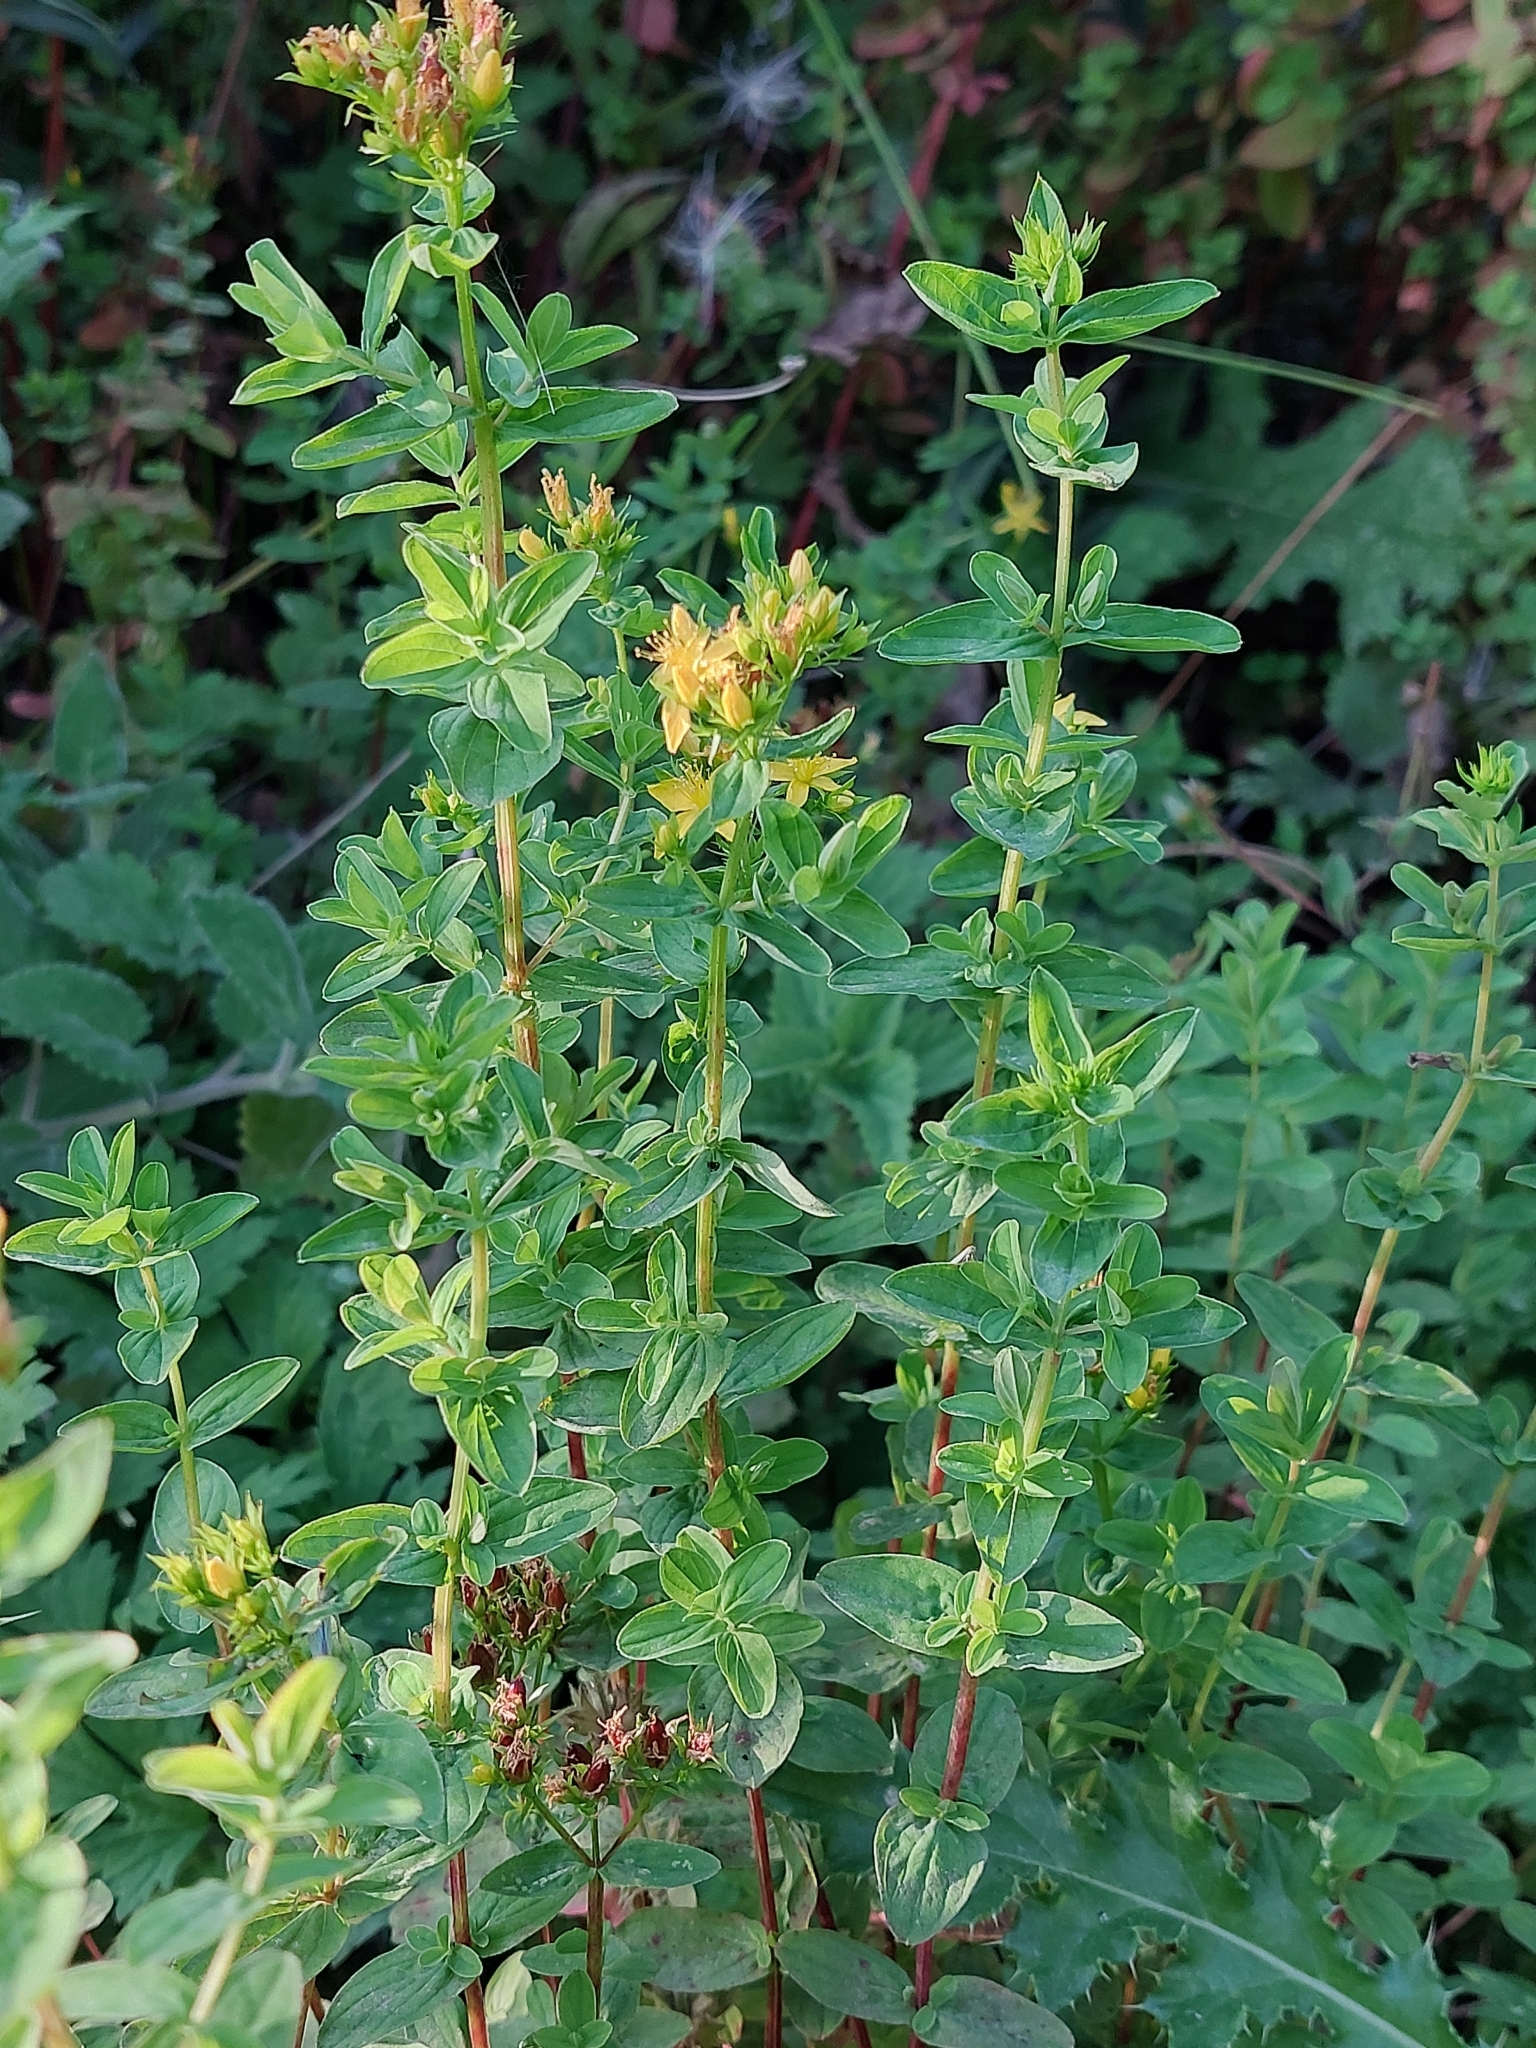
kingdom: Plantae
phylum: Tracheophyta
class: Magnoliopsida
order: Malpighiales
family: Hypericaceae
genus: Hypericum
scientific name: Hypericum tetrapterum
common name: Square-stalked st. john's-wort
